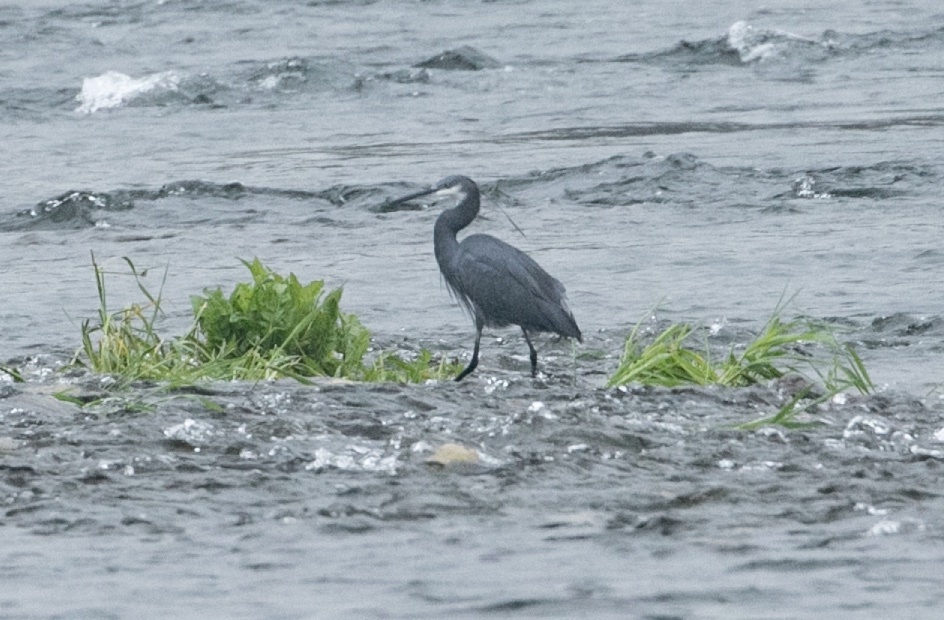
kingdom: Animalia
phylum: Chordata
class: Aves
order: Pelecaniformes
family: Ardeidae
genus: Egretta
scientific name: Egretta gularis
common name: Western reef-heron
